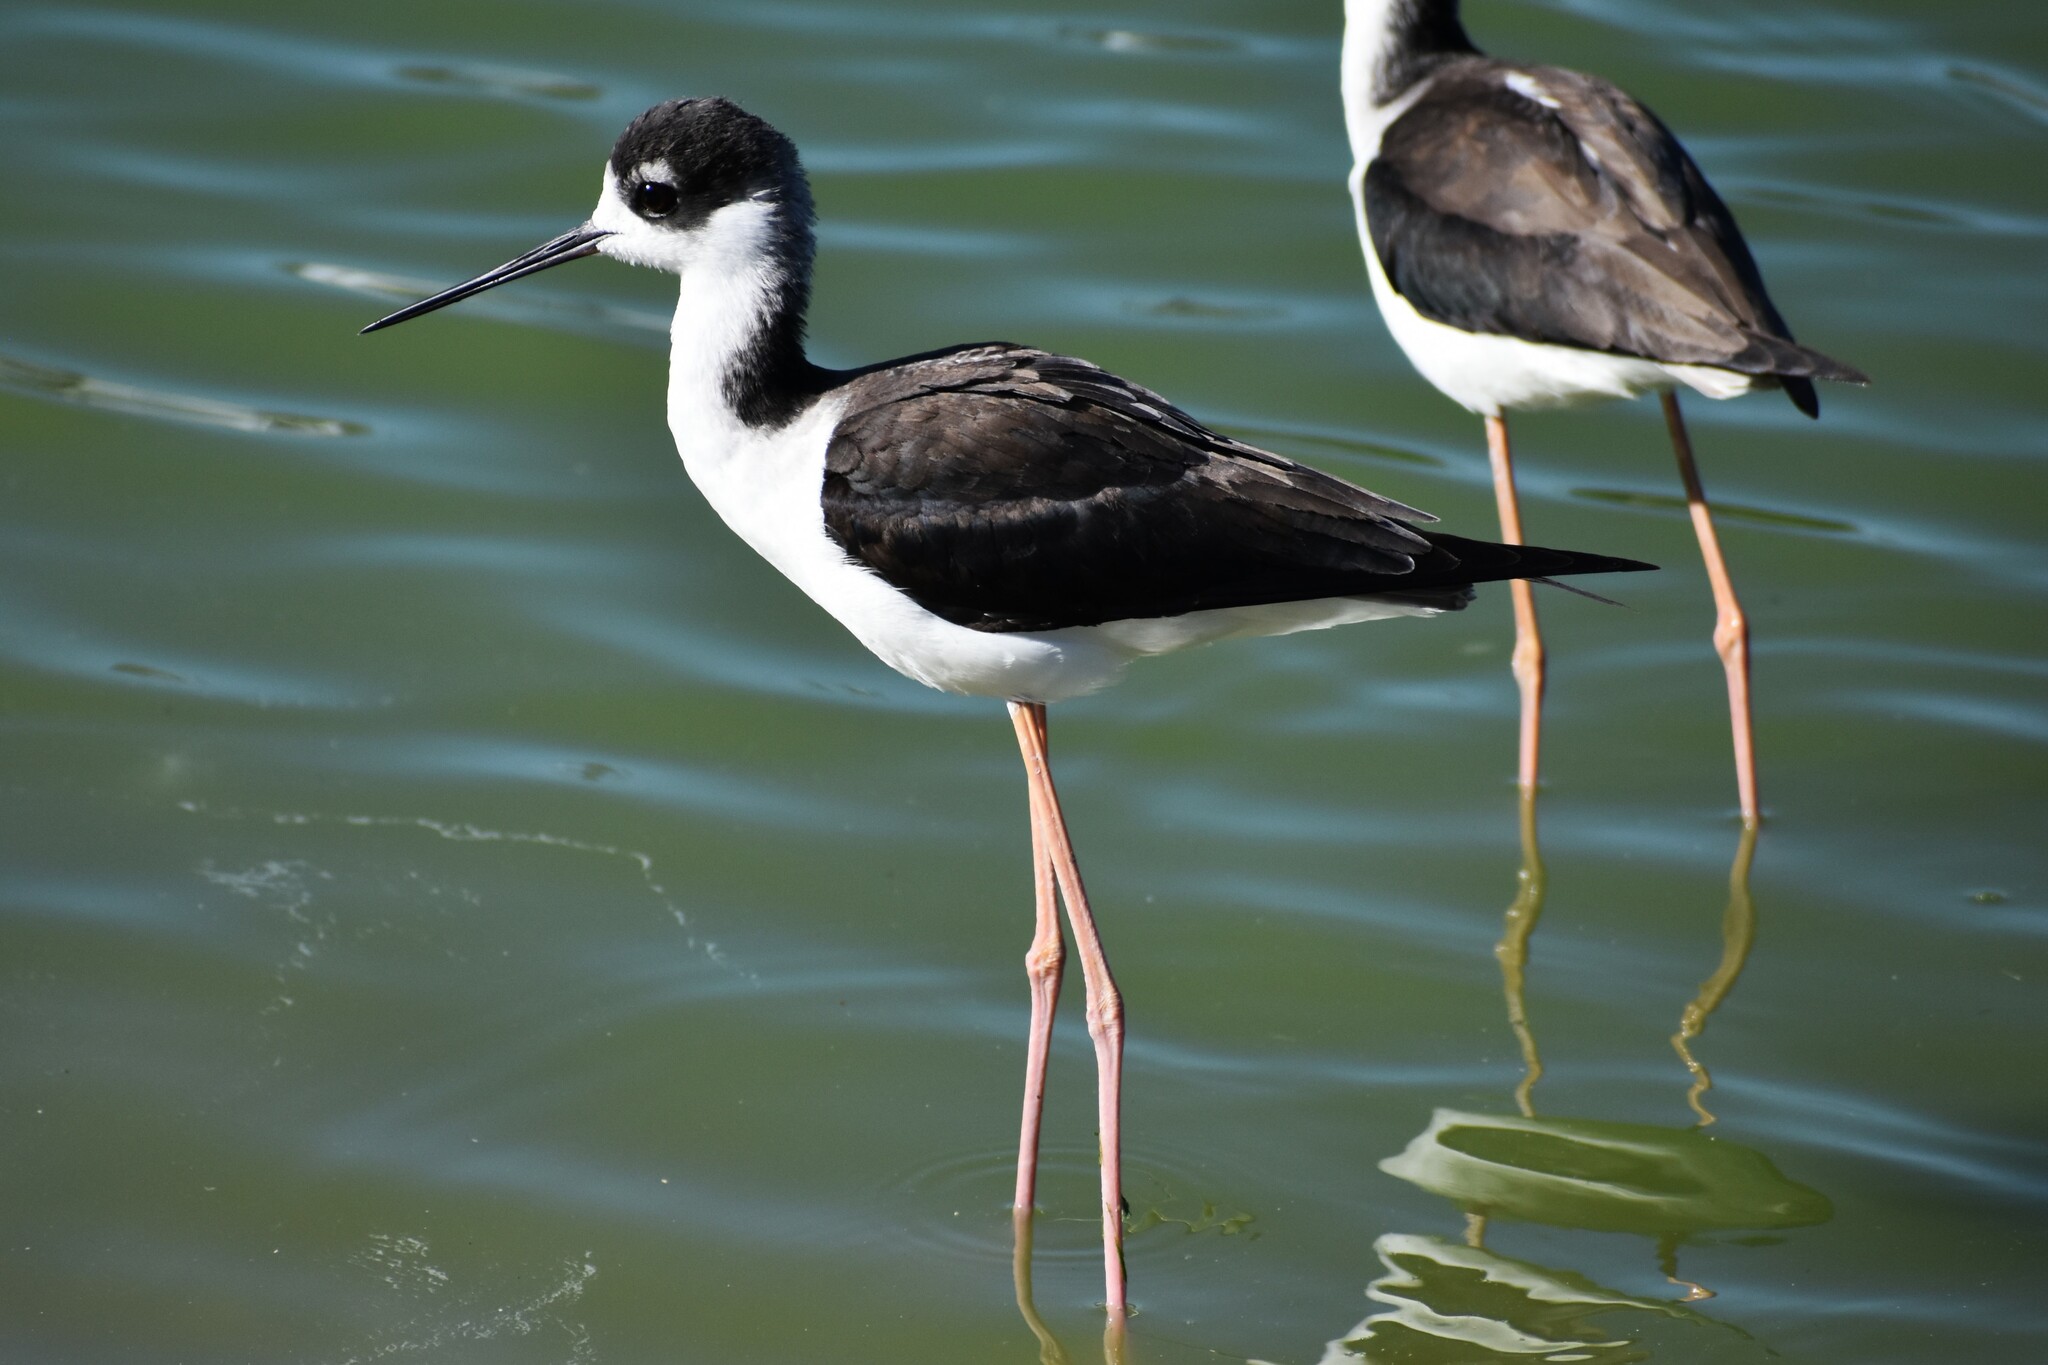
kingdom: Animalia
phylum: Chordata
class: Aves
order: Charadriiformes
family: Recurvirostridae
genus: Himantopus
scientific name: Himantopus mexicanus
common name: Black-necked stilt
